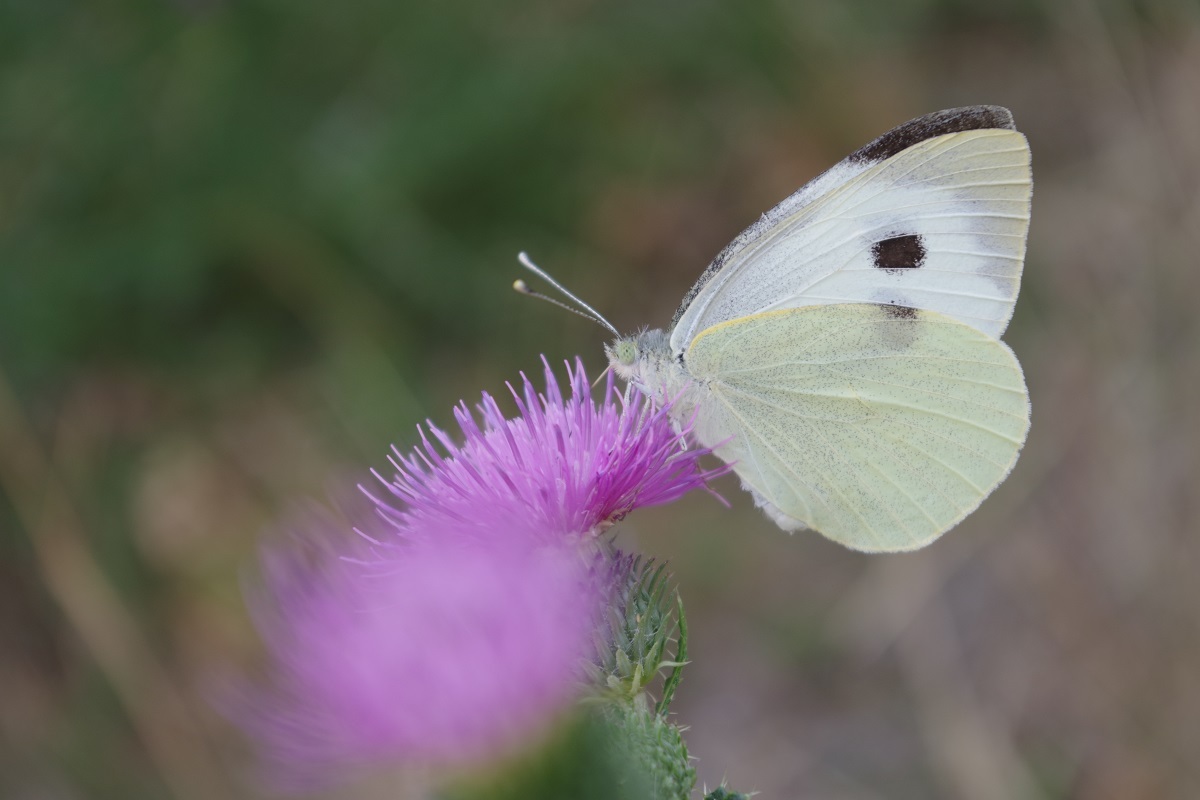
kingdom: Animalia
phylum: Arthropoda
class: Insecta
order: Lepidoptera
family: Pieridae
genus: Pieris
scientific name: Pieris brassicae
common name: Large white
